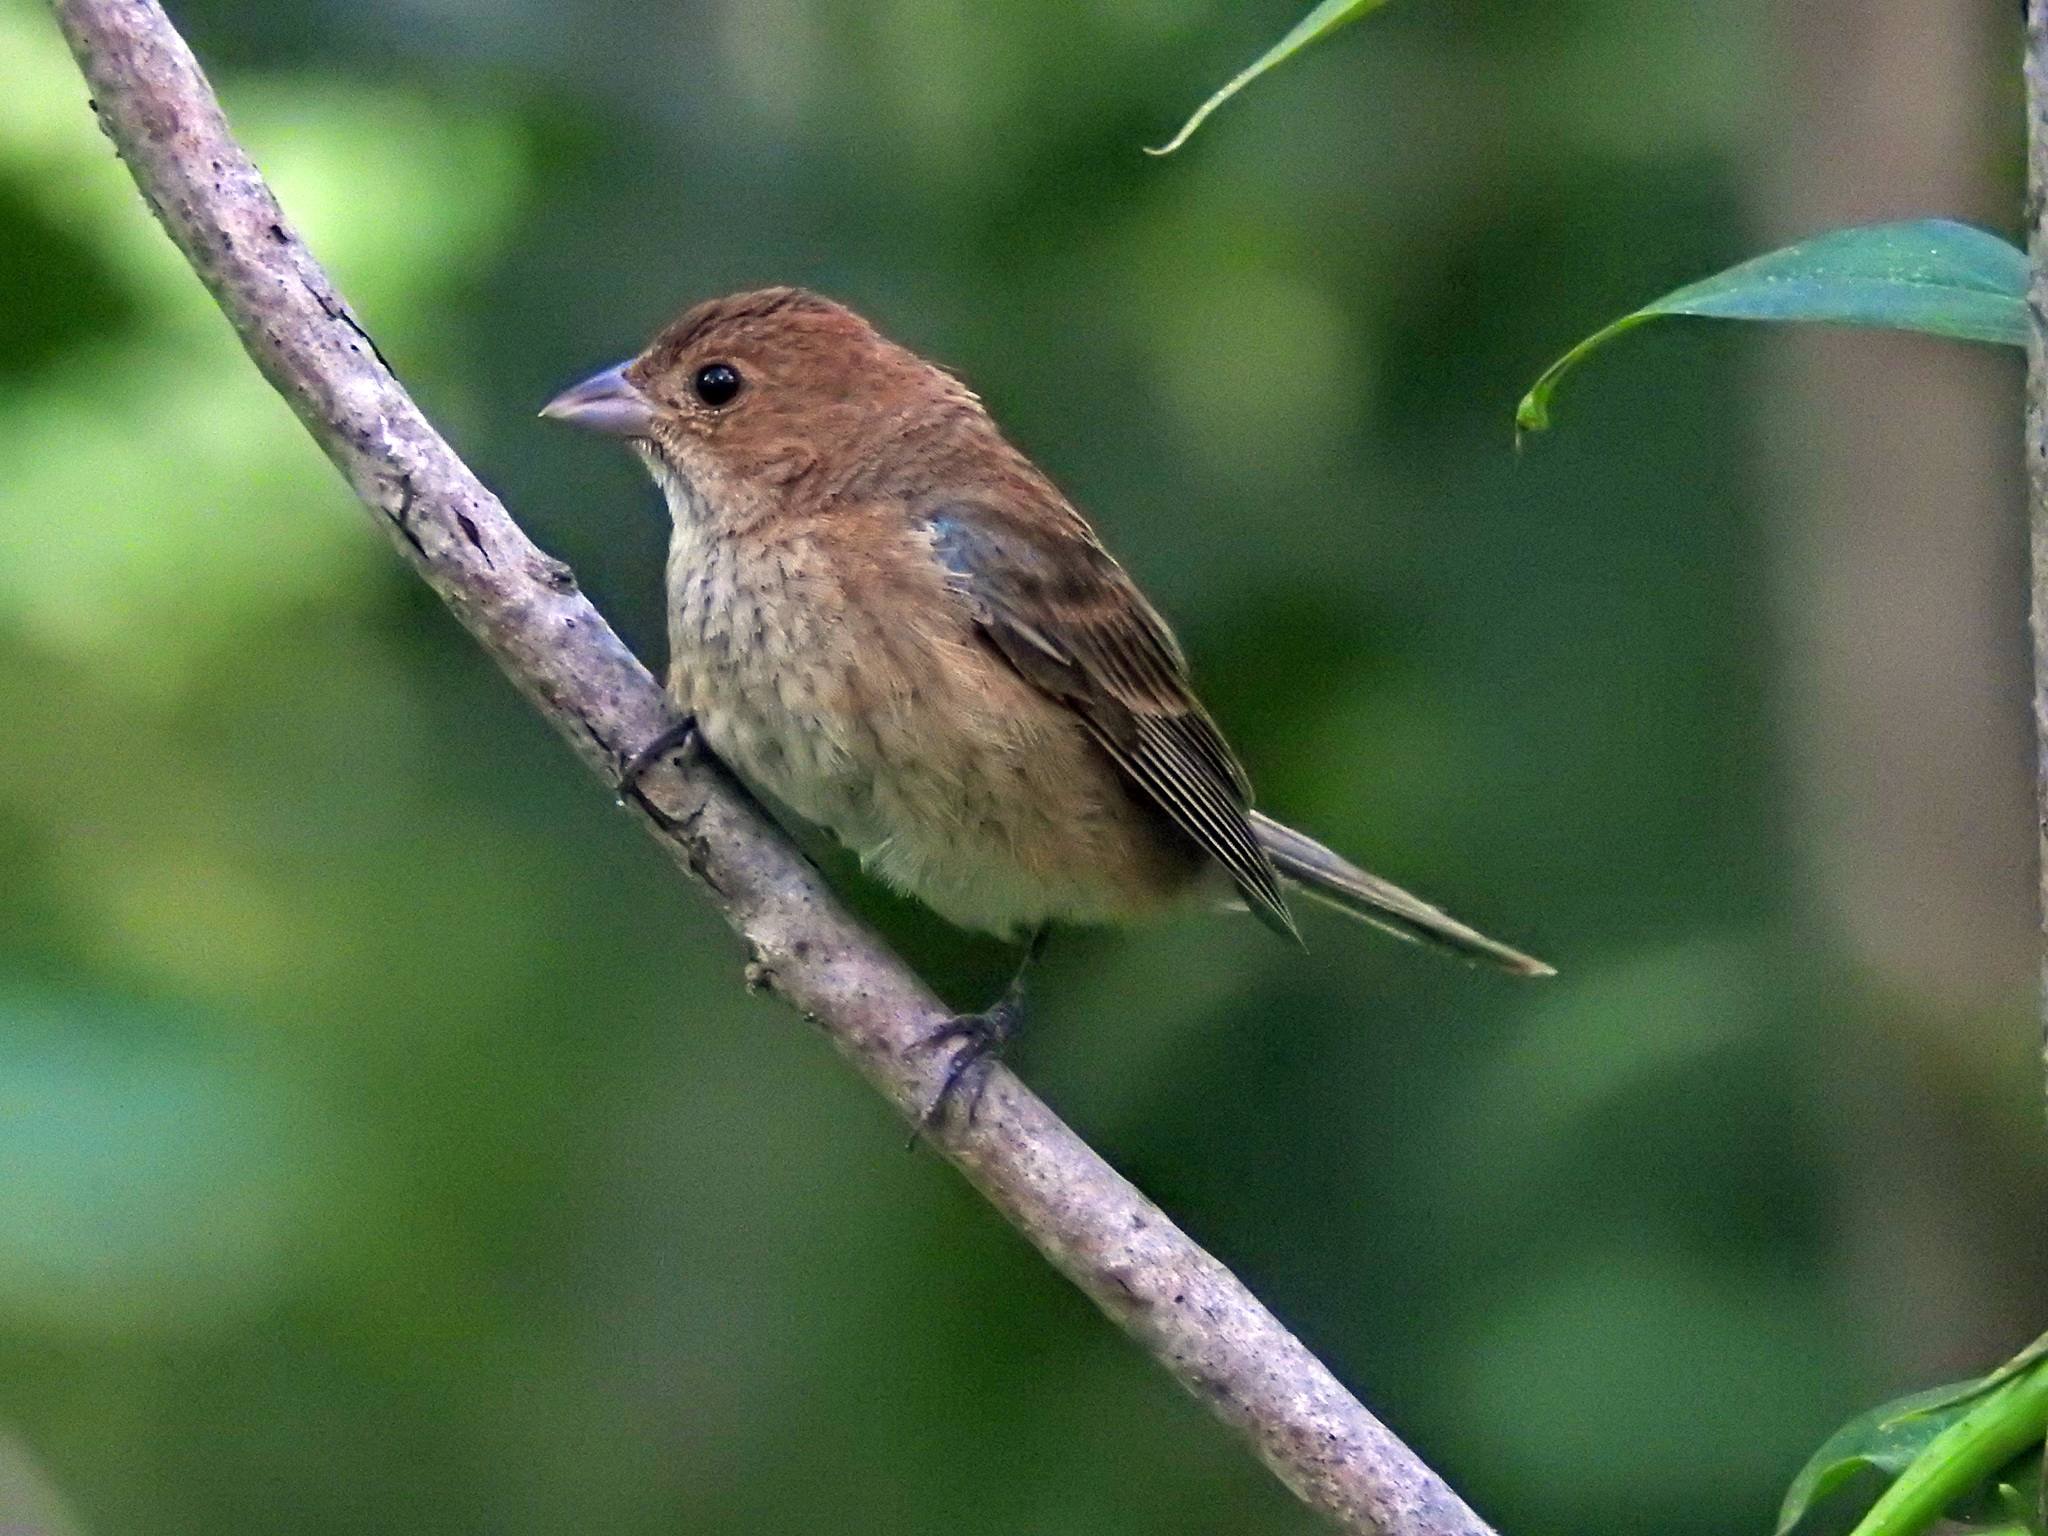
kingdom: Animalia
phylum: Chordata
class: Aves
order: Passeriformes
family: Cardinalidae
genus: Passerina
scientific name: Passerina cyanea
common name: Indigo bunting
